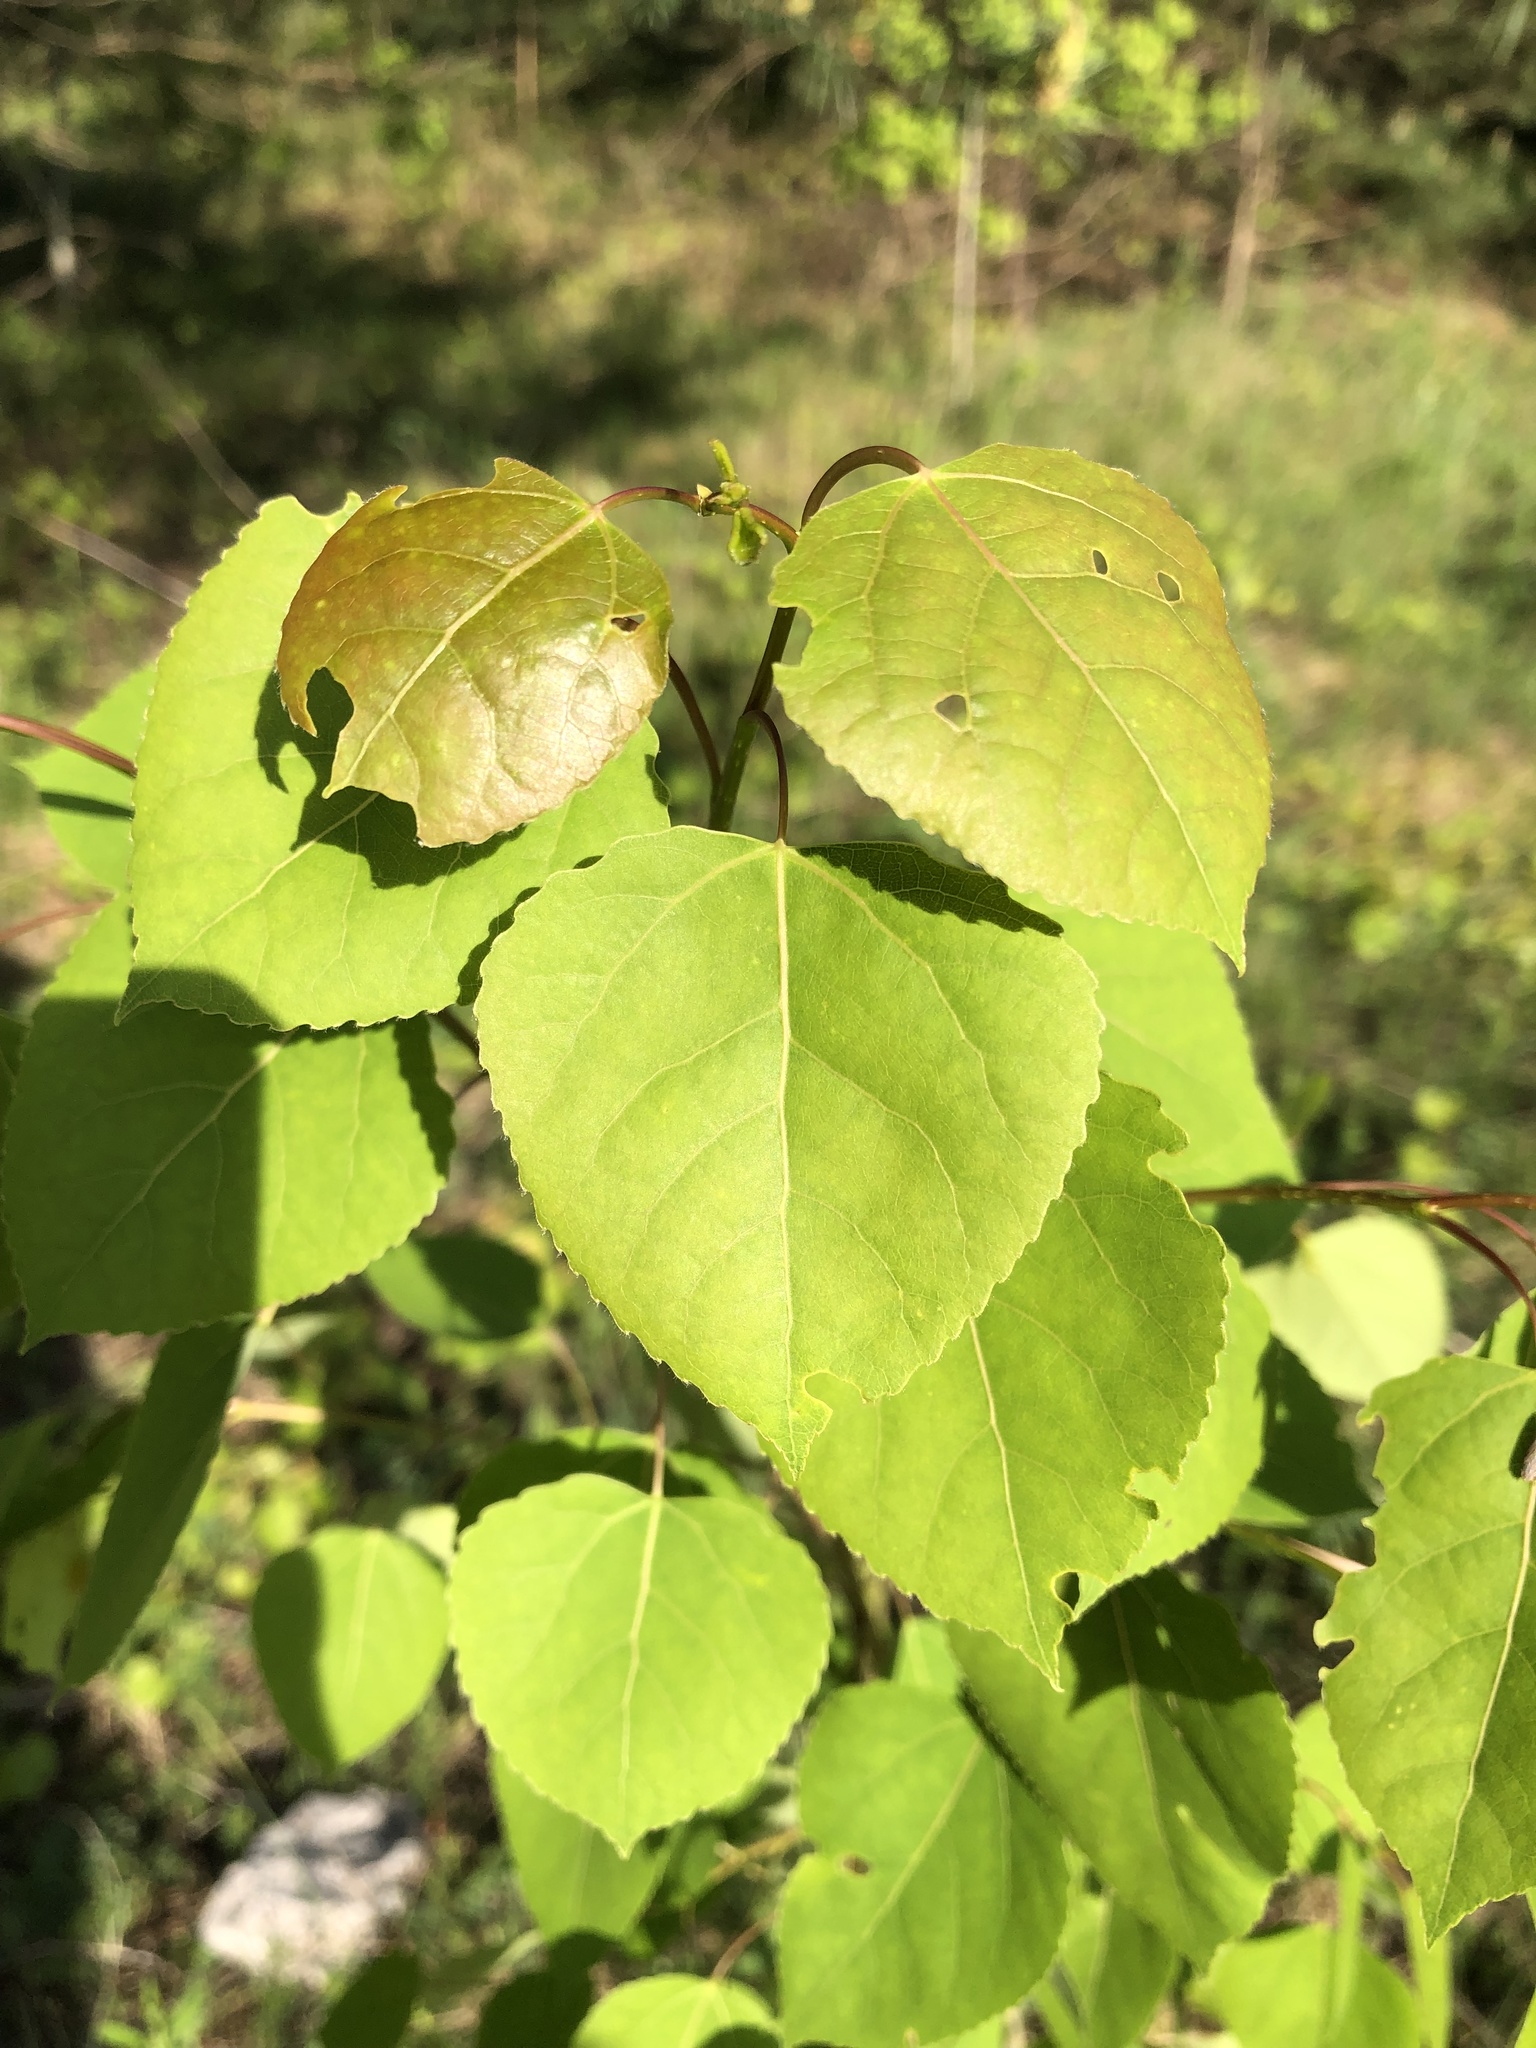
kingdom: Plantae
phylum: Tracheophyta
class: Magnoliopsida
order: Malpighiales
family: Salicaceae
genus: Populus
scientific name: Populus tremuloides
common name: Quaking aspen
